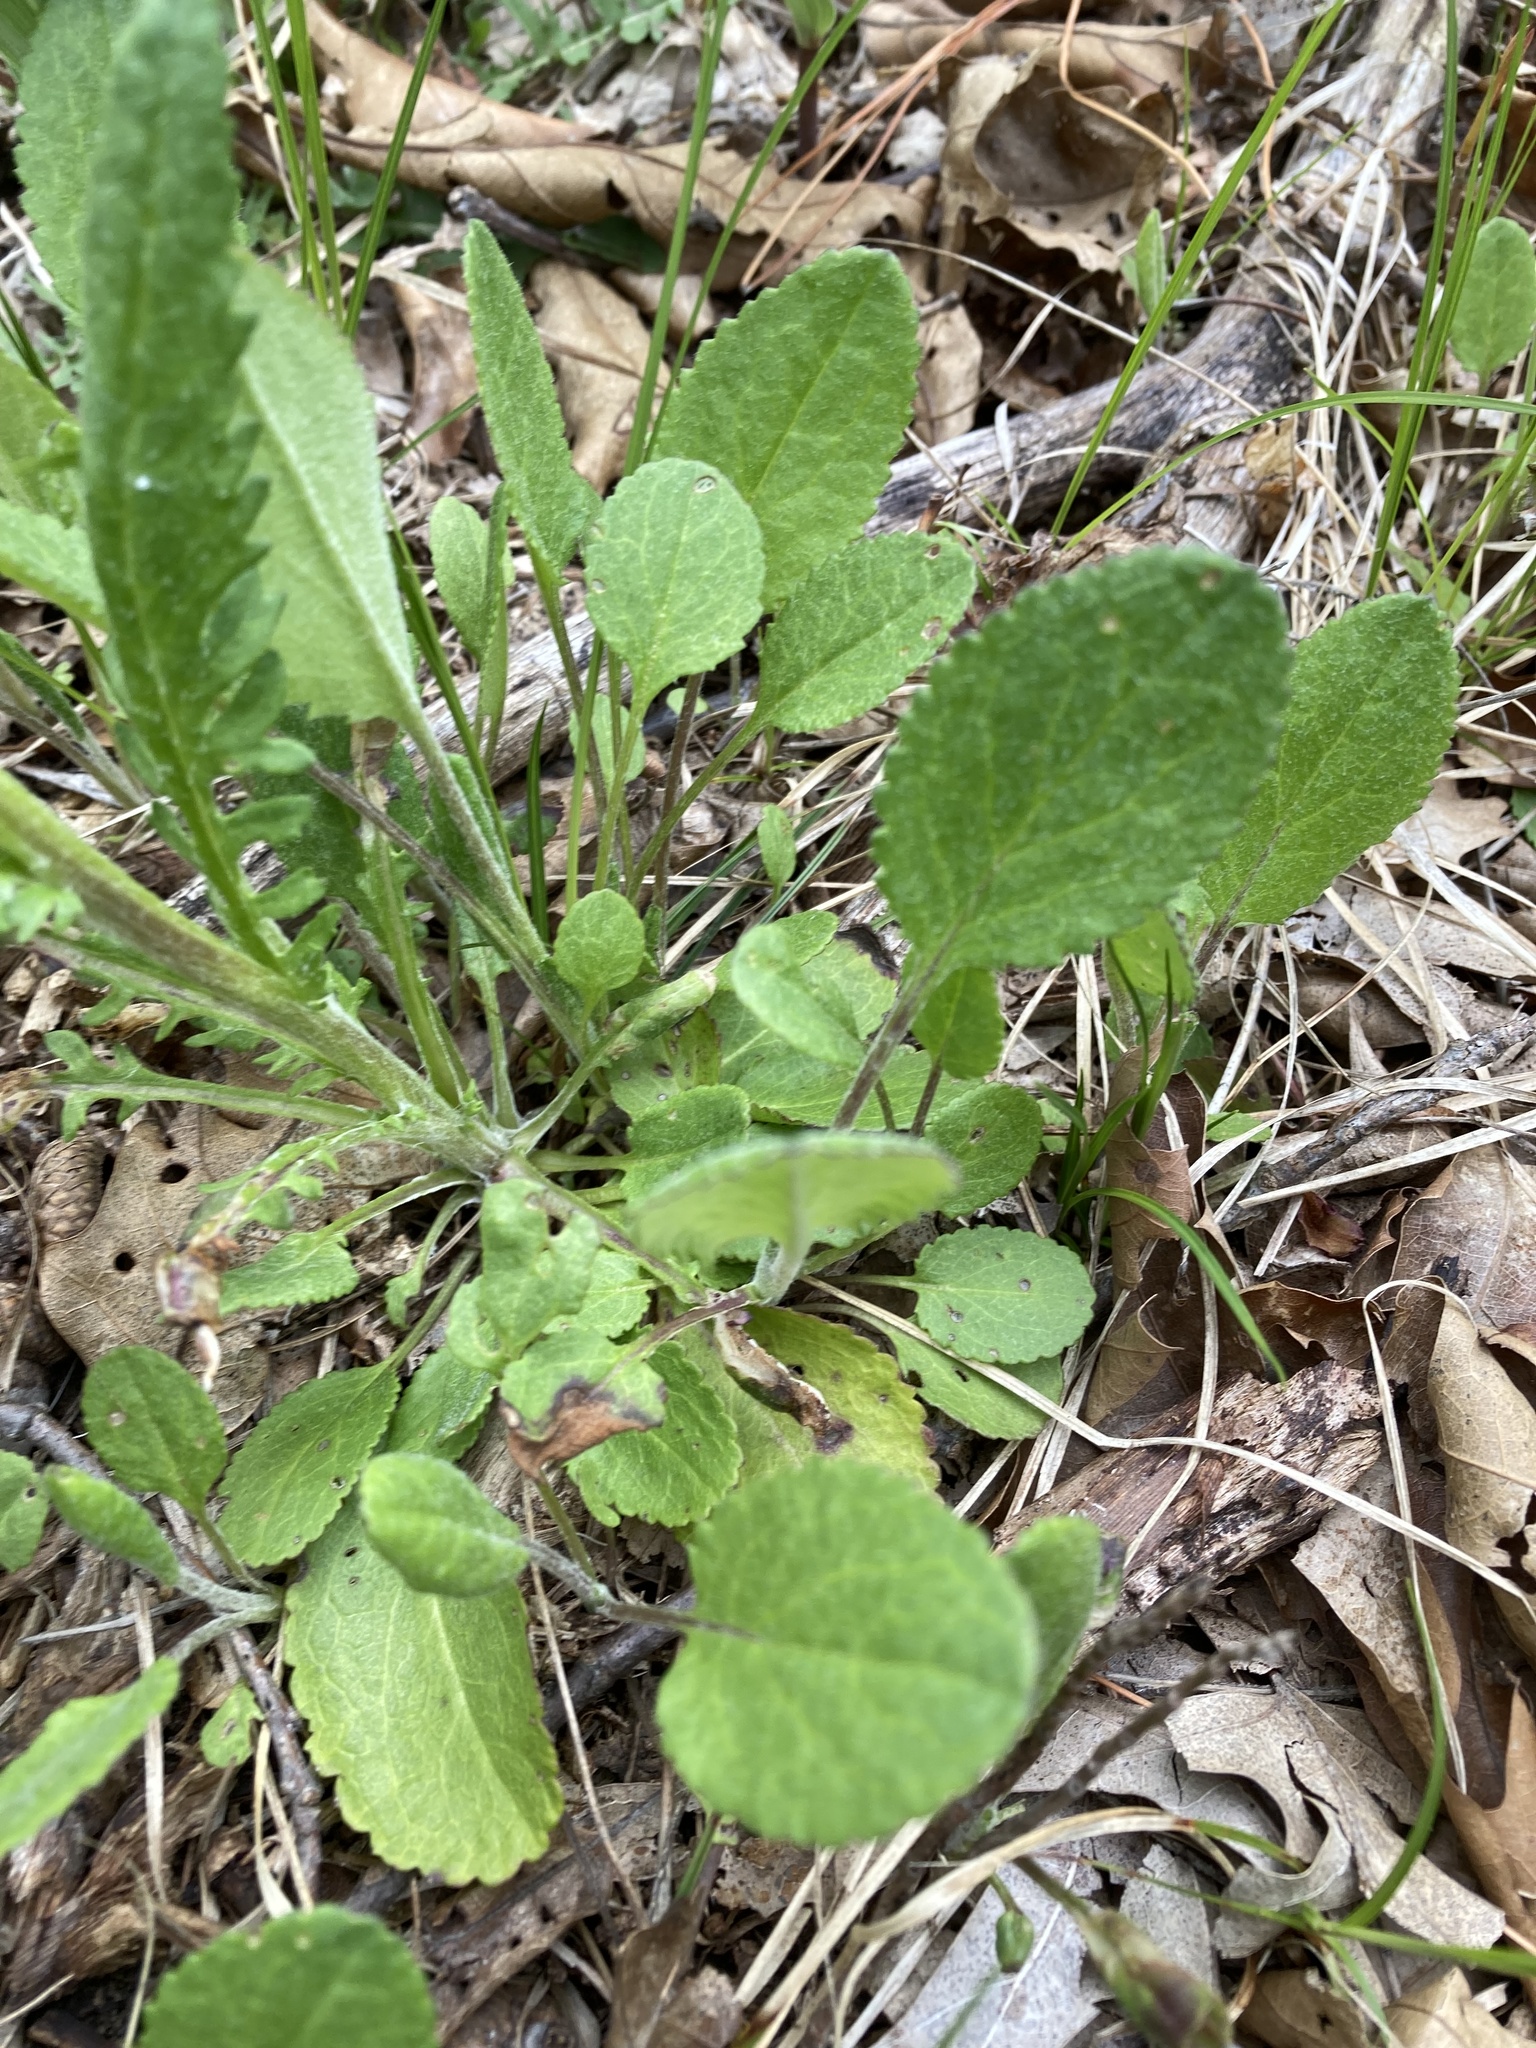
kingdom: Plantae
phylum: Tracheophyta
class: Magnoliopsida
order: Asterales
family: Asteraceae
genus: Packera
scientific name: Packera paupercula
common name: Balsam groundsel
